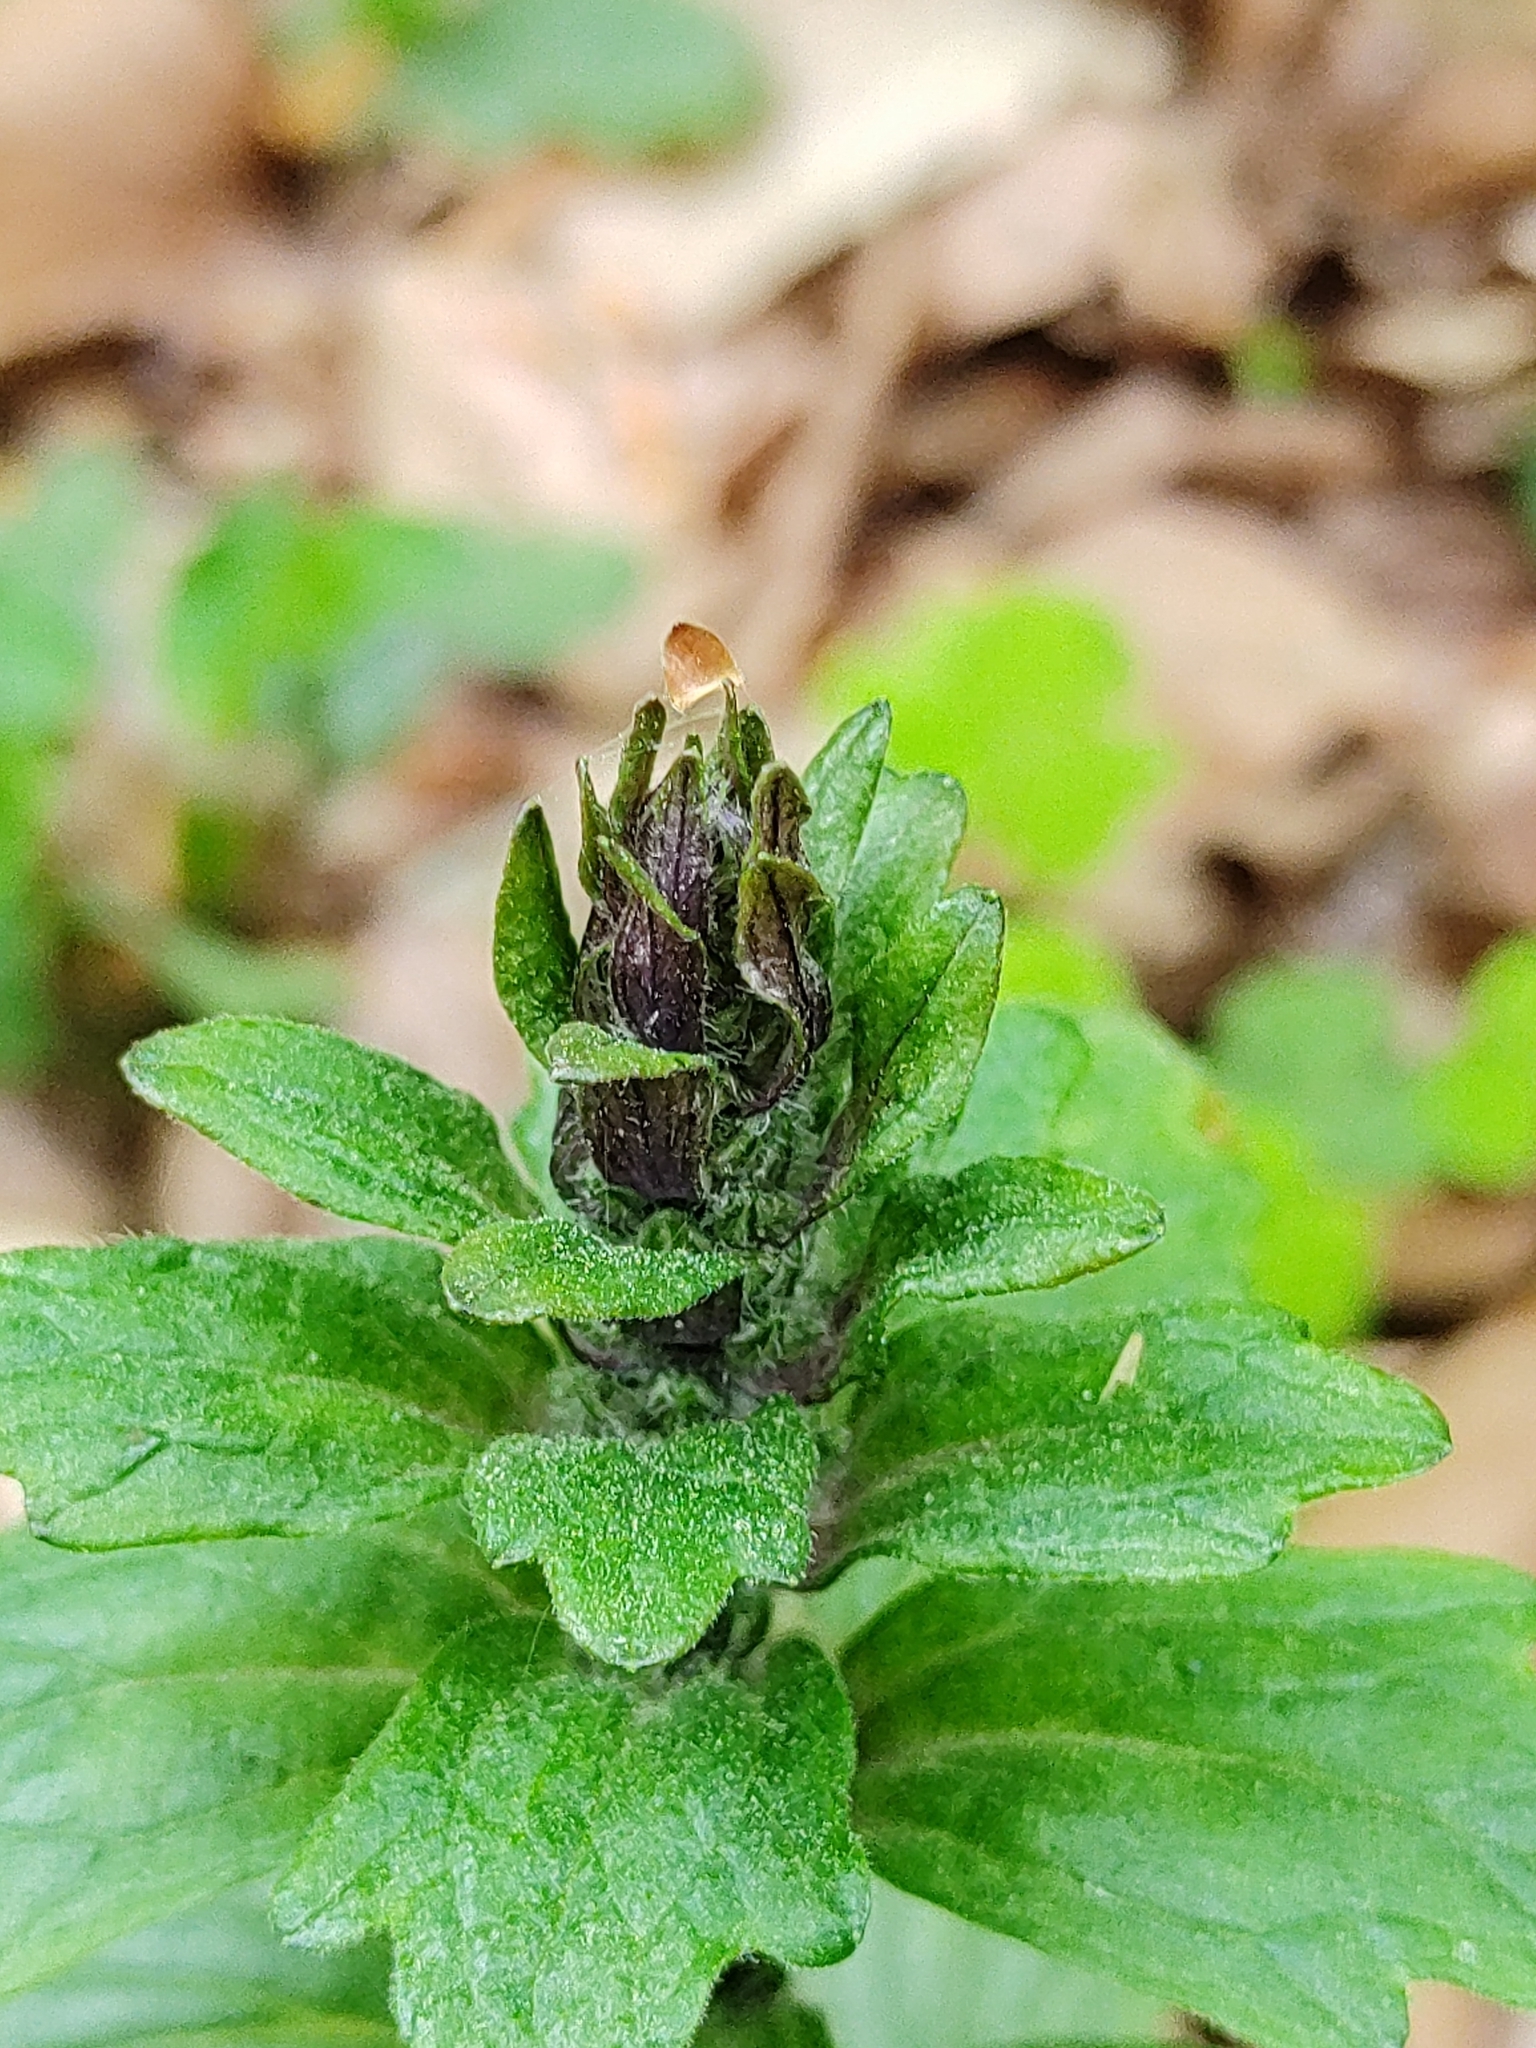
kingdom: Plantae
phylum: Tracheophyta
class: Magnoliopsida
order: Lamiales
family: Lamiaceae
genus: Ajuga
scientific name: Ajuga reptans
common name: Bugle
